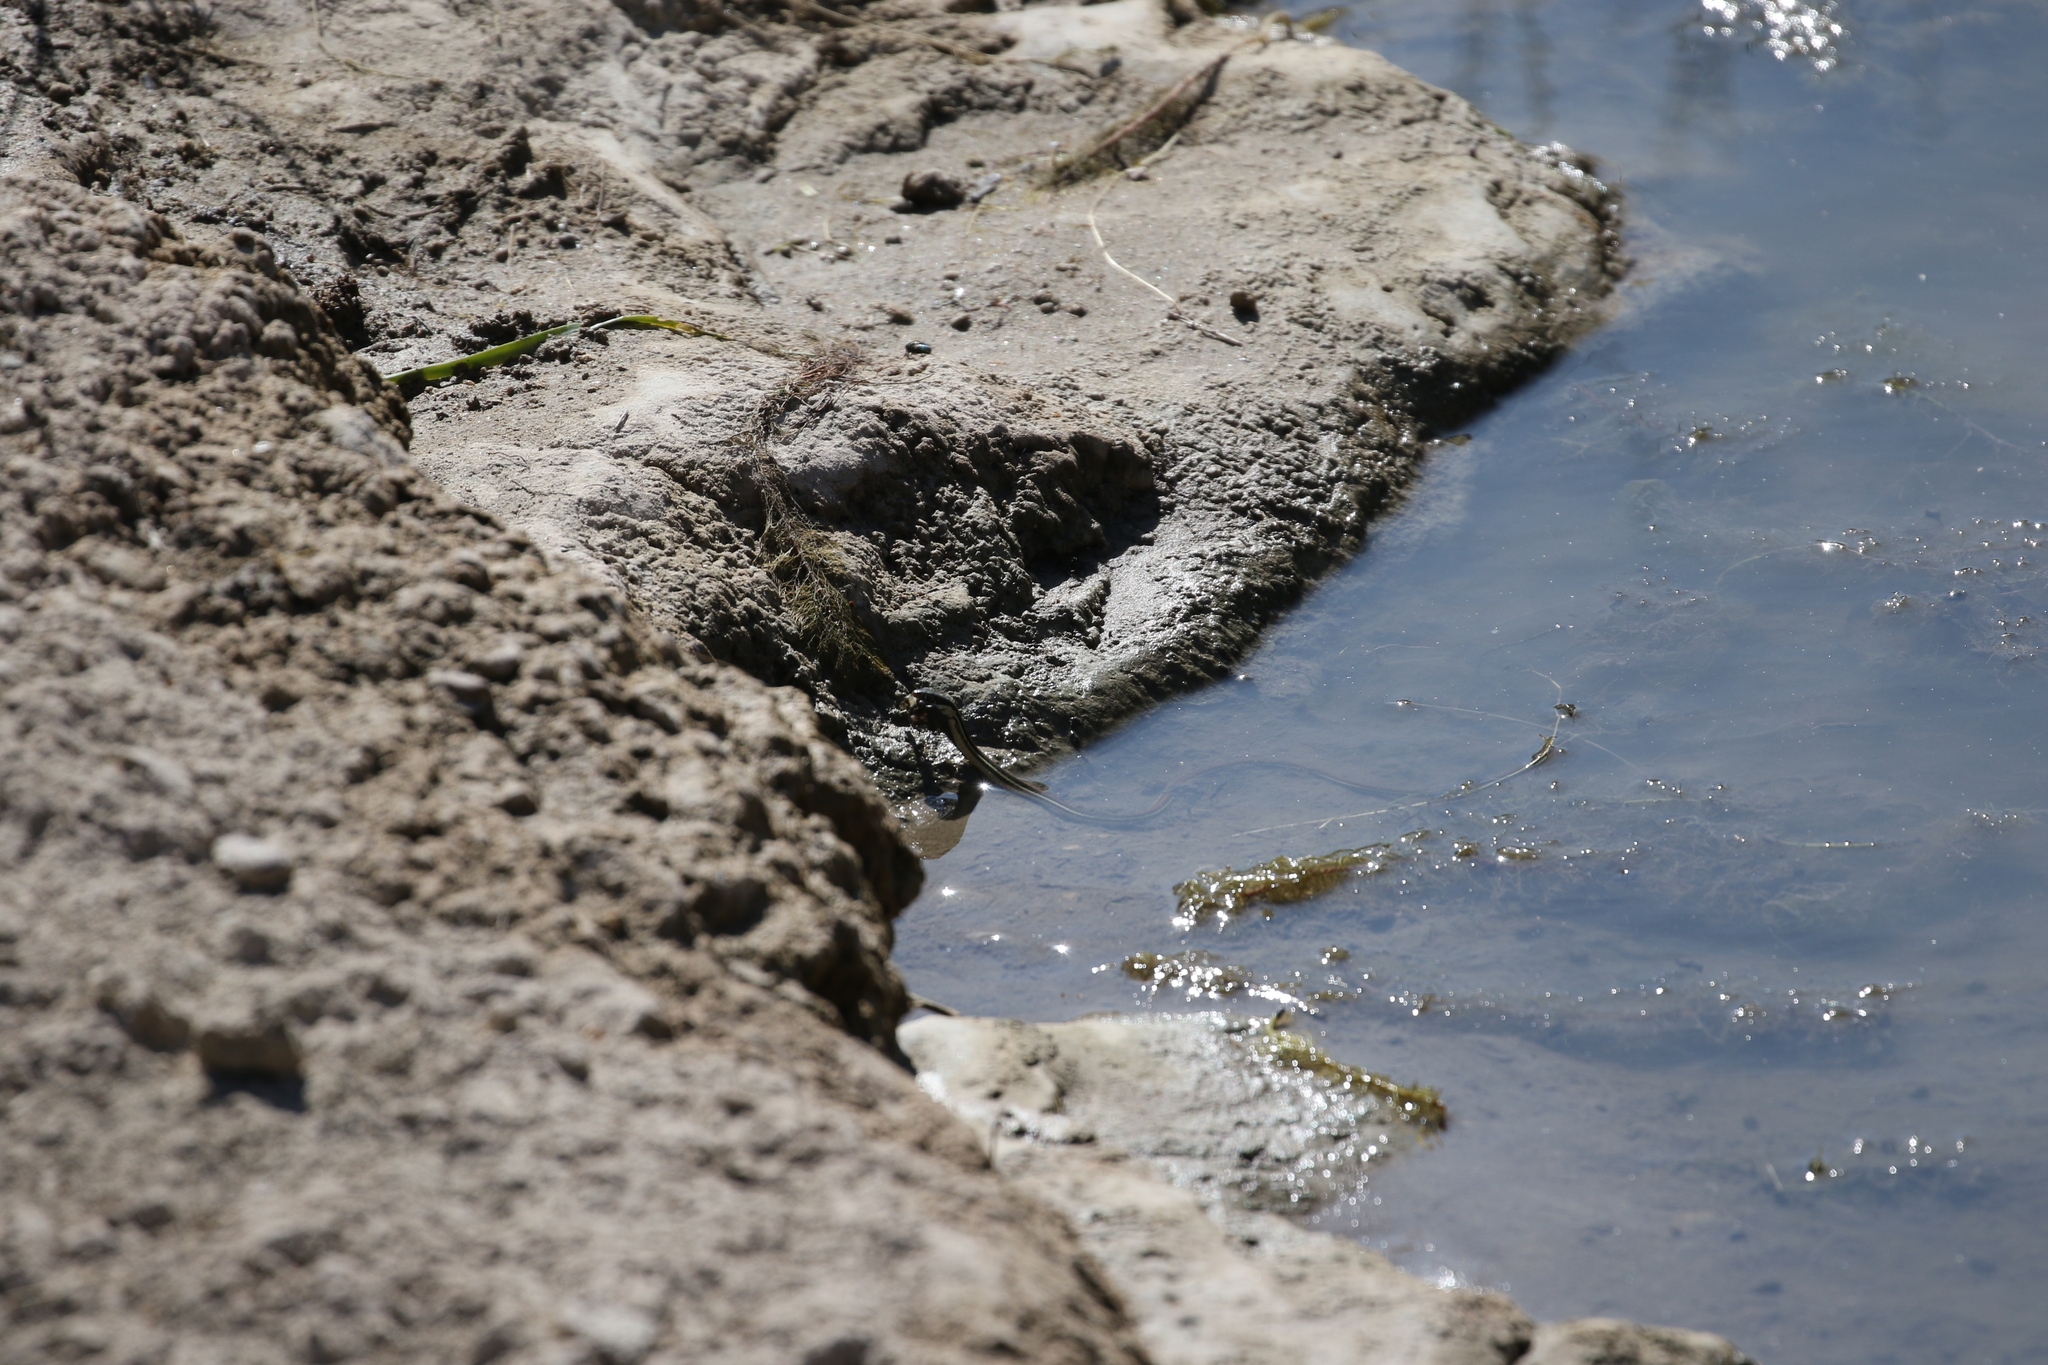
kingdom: Animalia
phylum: Chordata
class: Squamata
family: Colubridae
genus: Thamnophis
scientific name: Thamnophis proximus
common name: Western ribbon snake
